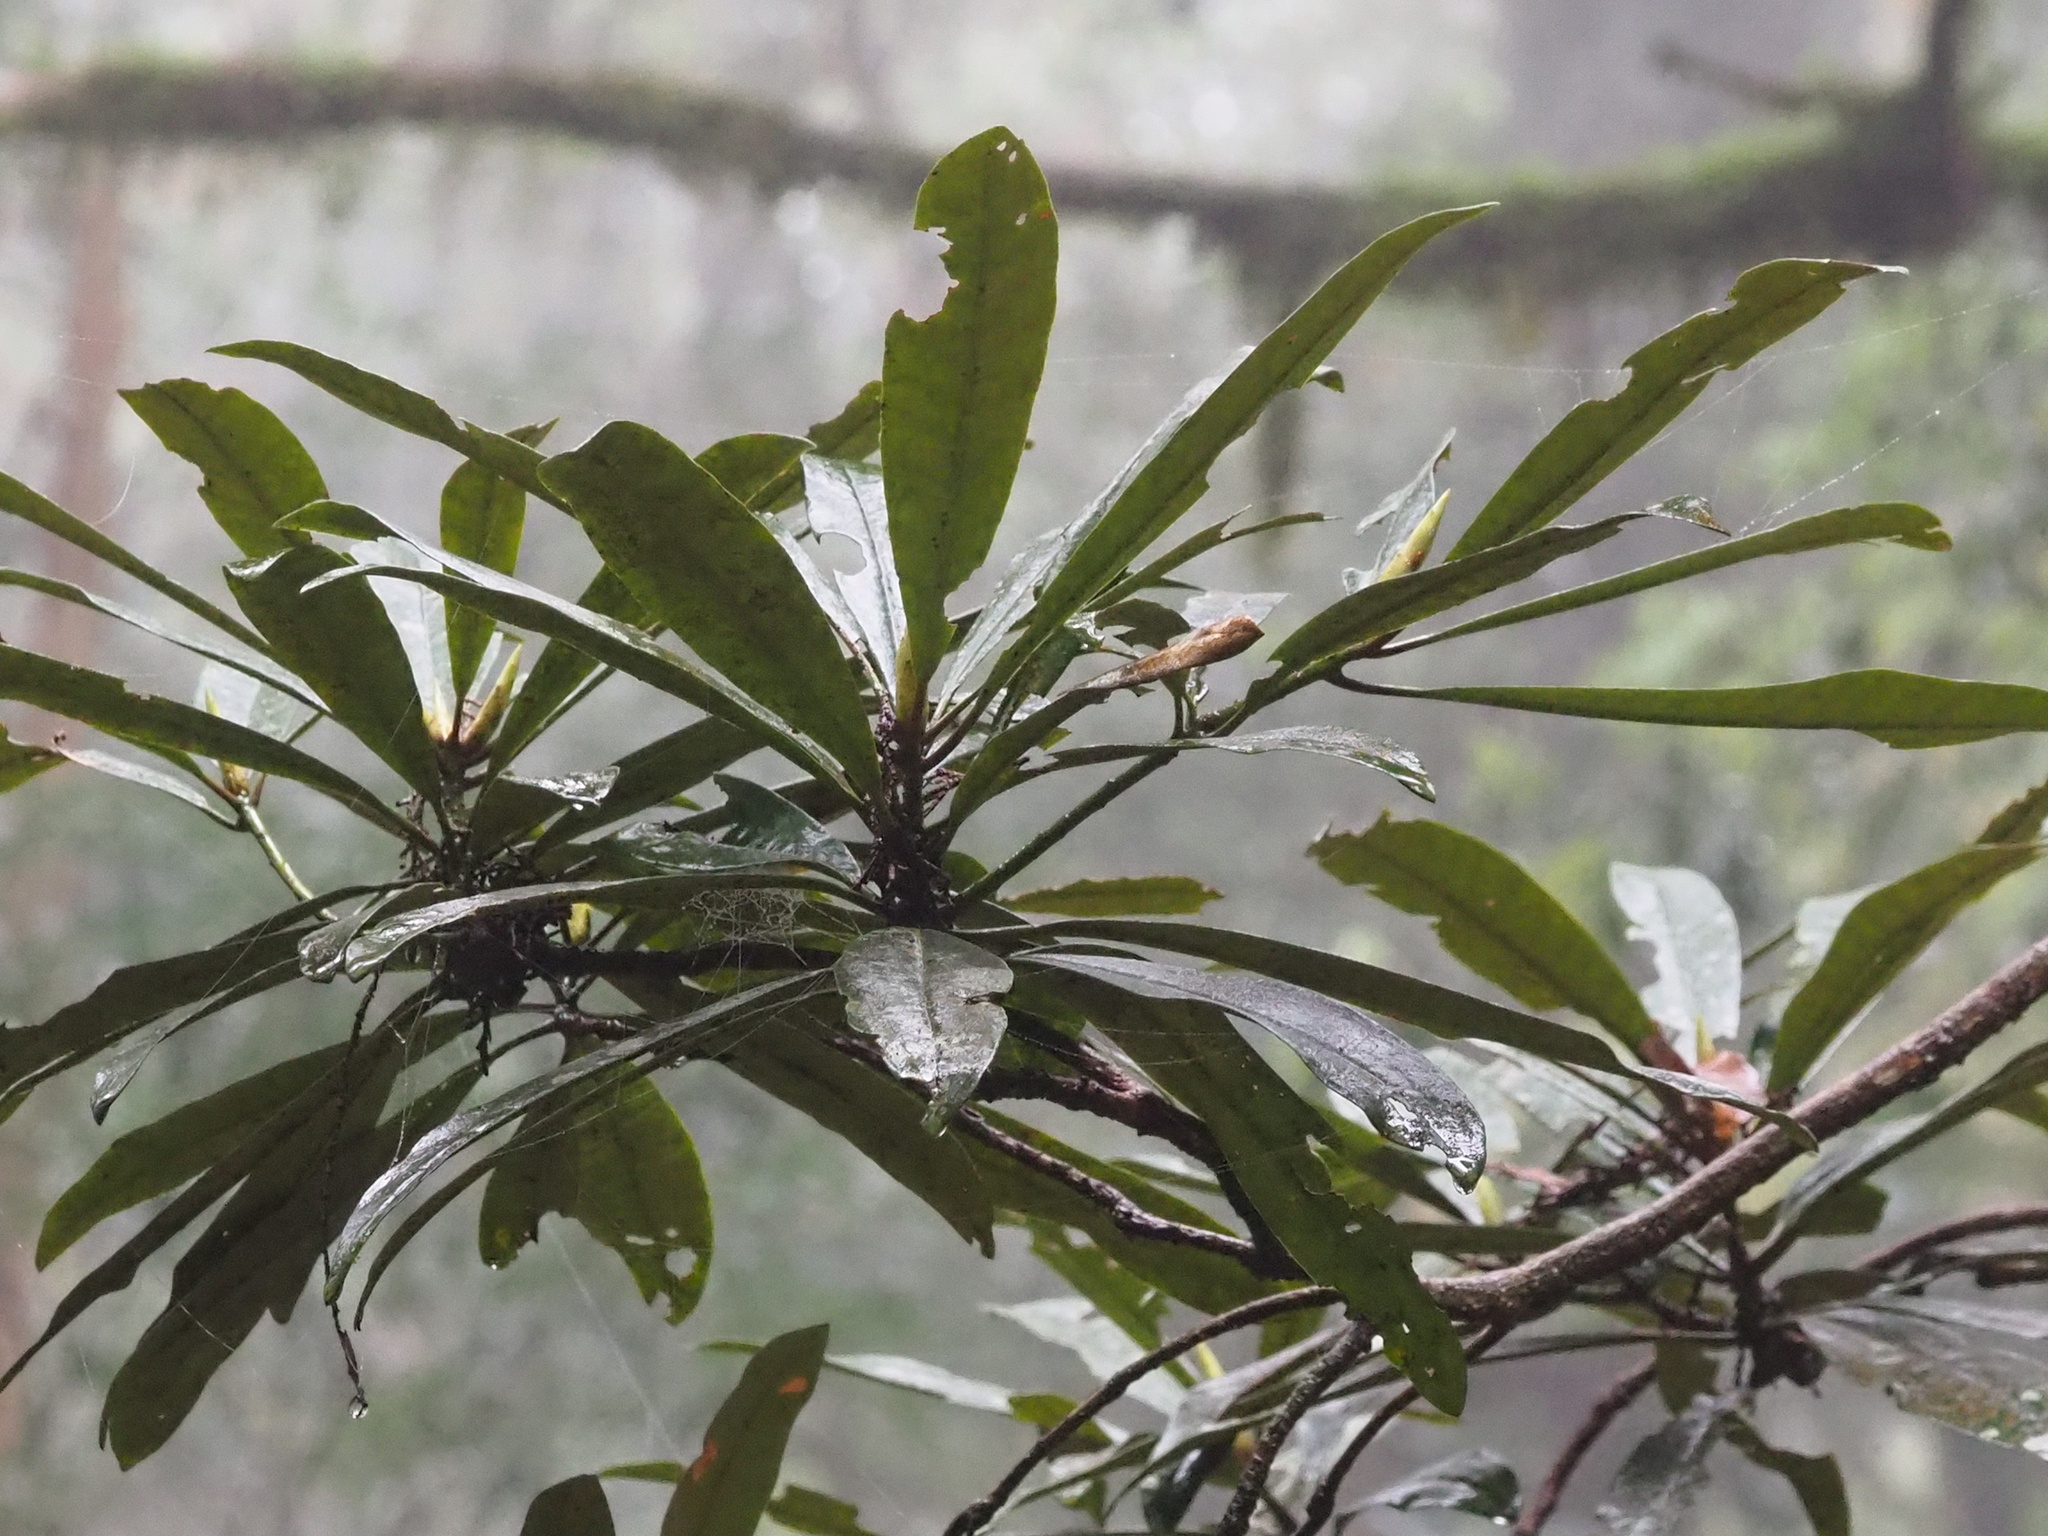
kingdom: Plantae
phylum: Tracheophyta
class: Magnoliopsida
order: Ericales
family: Ericaceae
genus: Rhododendron
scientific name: Rhododendron formosanum
